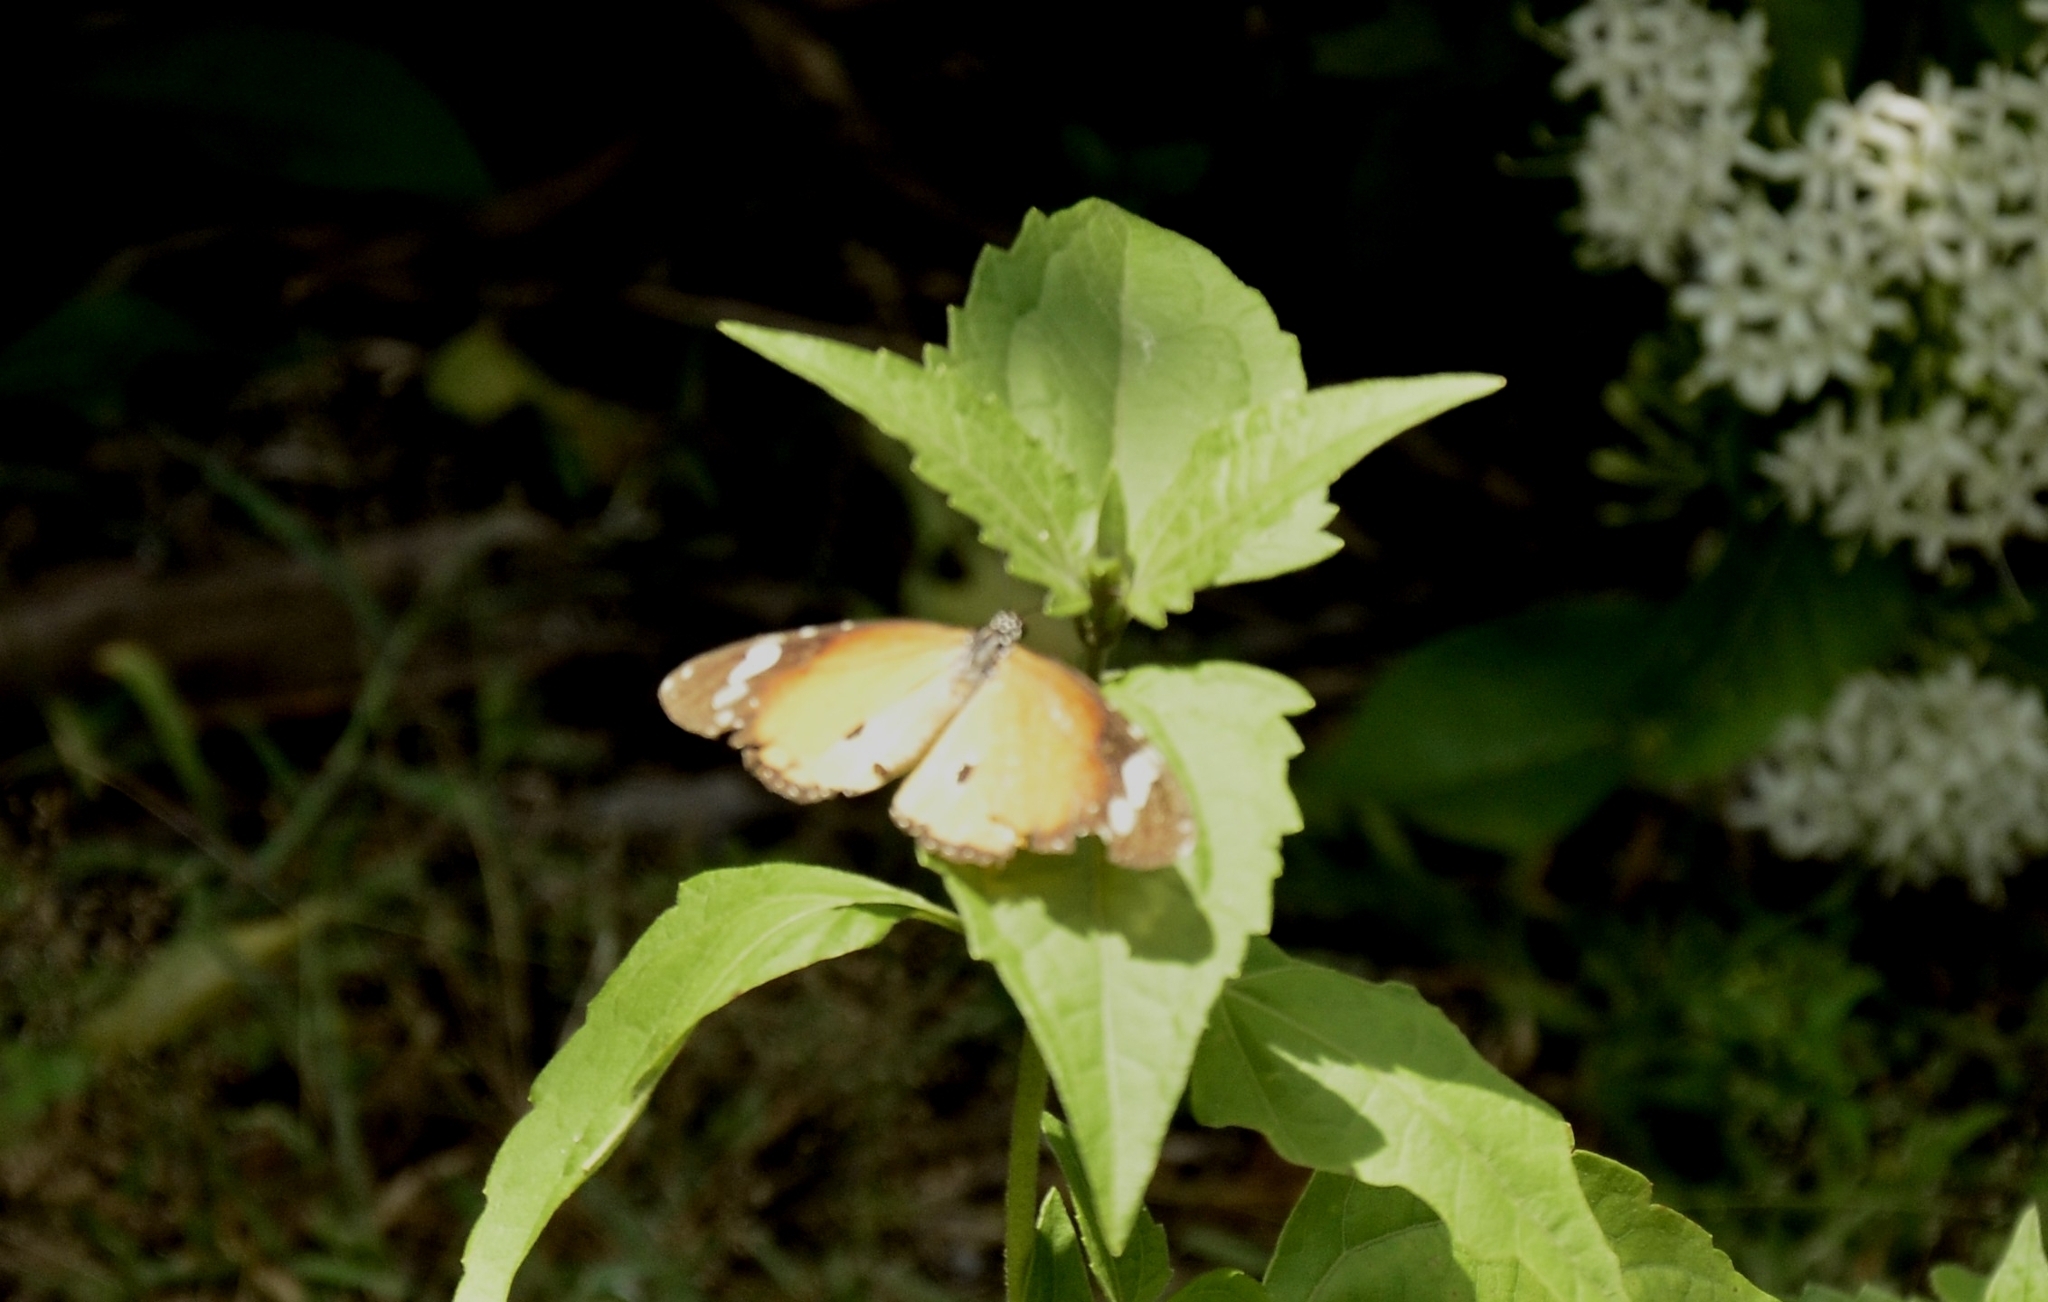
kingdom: Animalia
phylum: Arthropoda
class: Insecta
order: Lepidoptera
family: Nymphalidae
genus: Danaus
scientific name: Danaus chrysippus
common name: Plain tiger
